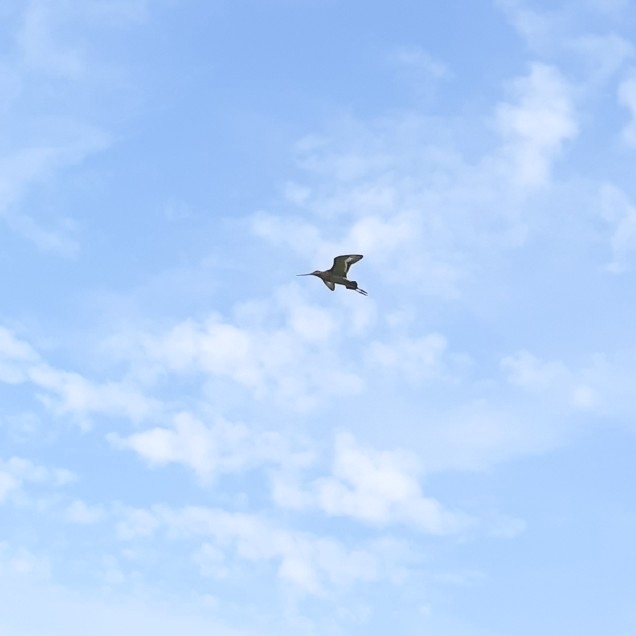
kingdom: Animalia
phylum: Chordata
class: Aves
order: Charadriiformes
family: Scolopacidae
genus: Limosa
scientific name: Limosa limosa
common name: Black-tailed godwit
